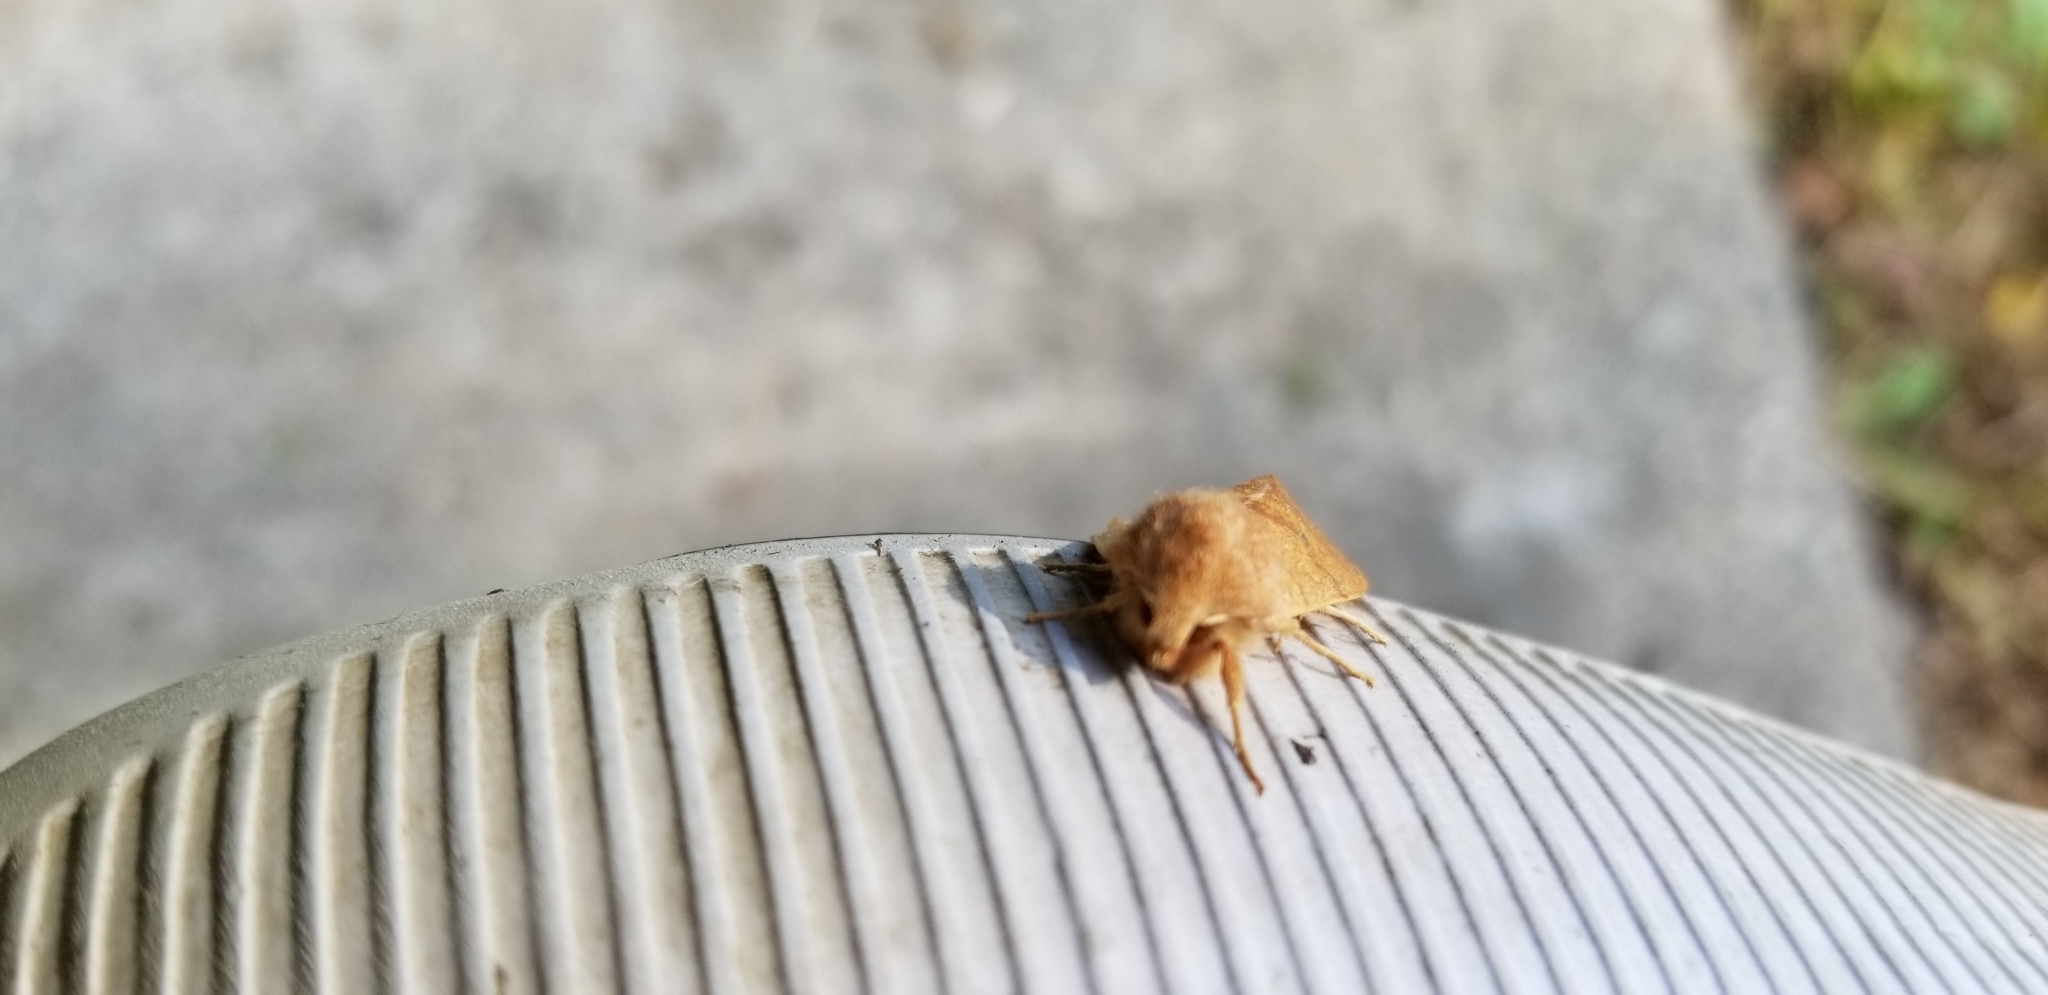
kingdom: Animalia
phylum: Arthropoda
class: Insecta
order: Lepidoptera
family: Noctuidae
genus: Agrochola
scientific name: Agrochola bicolorago
